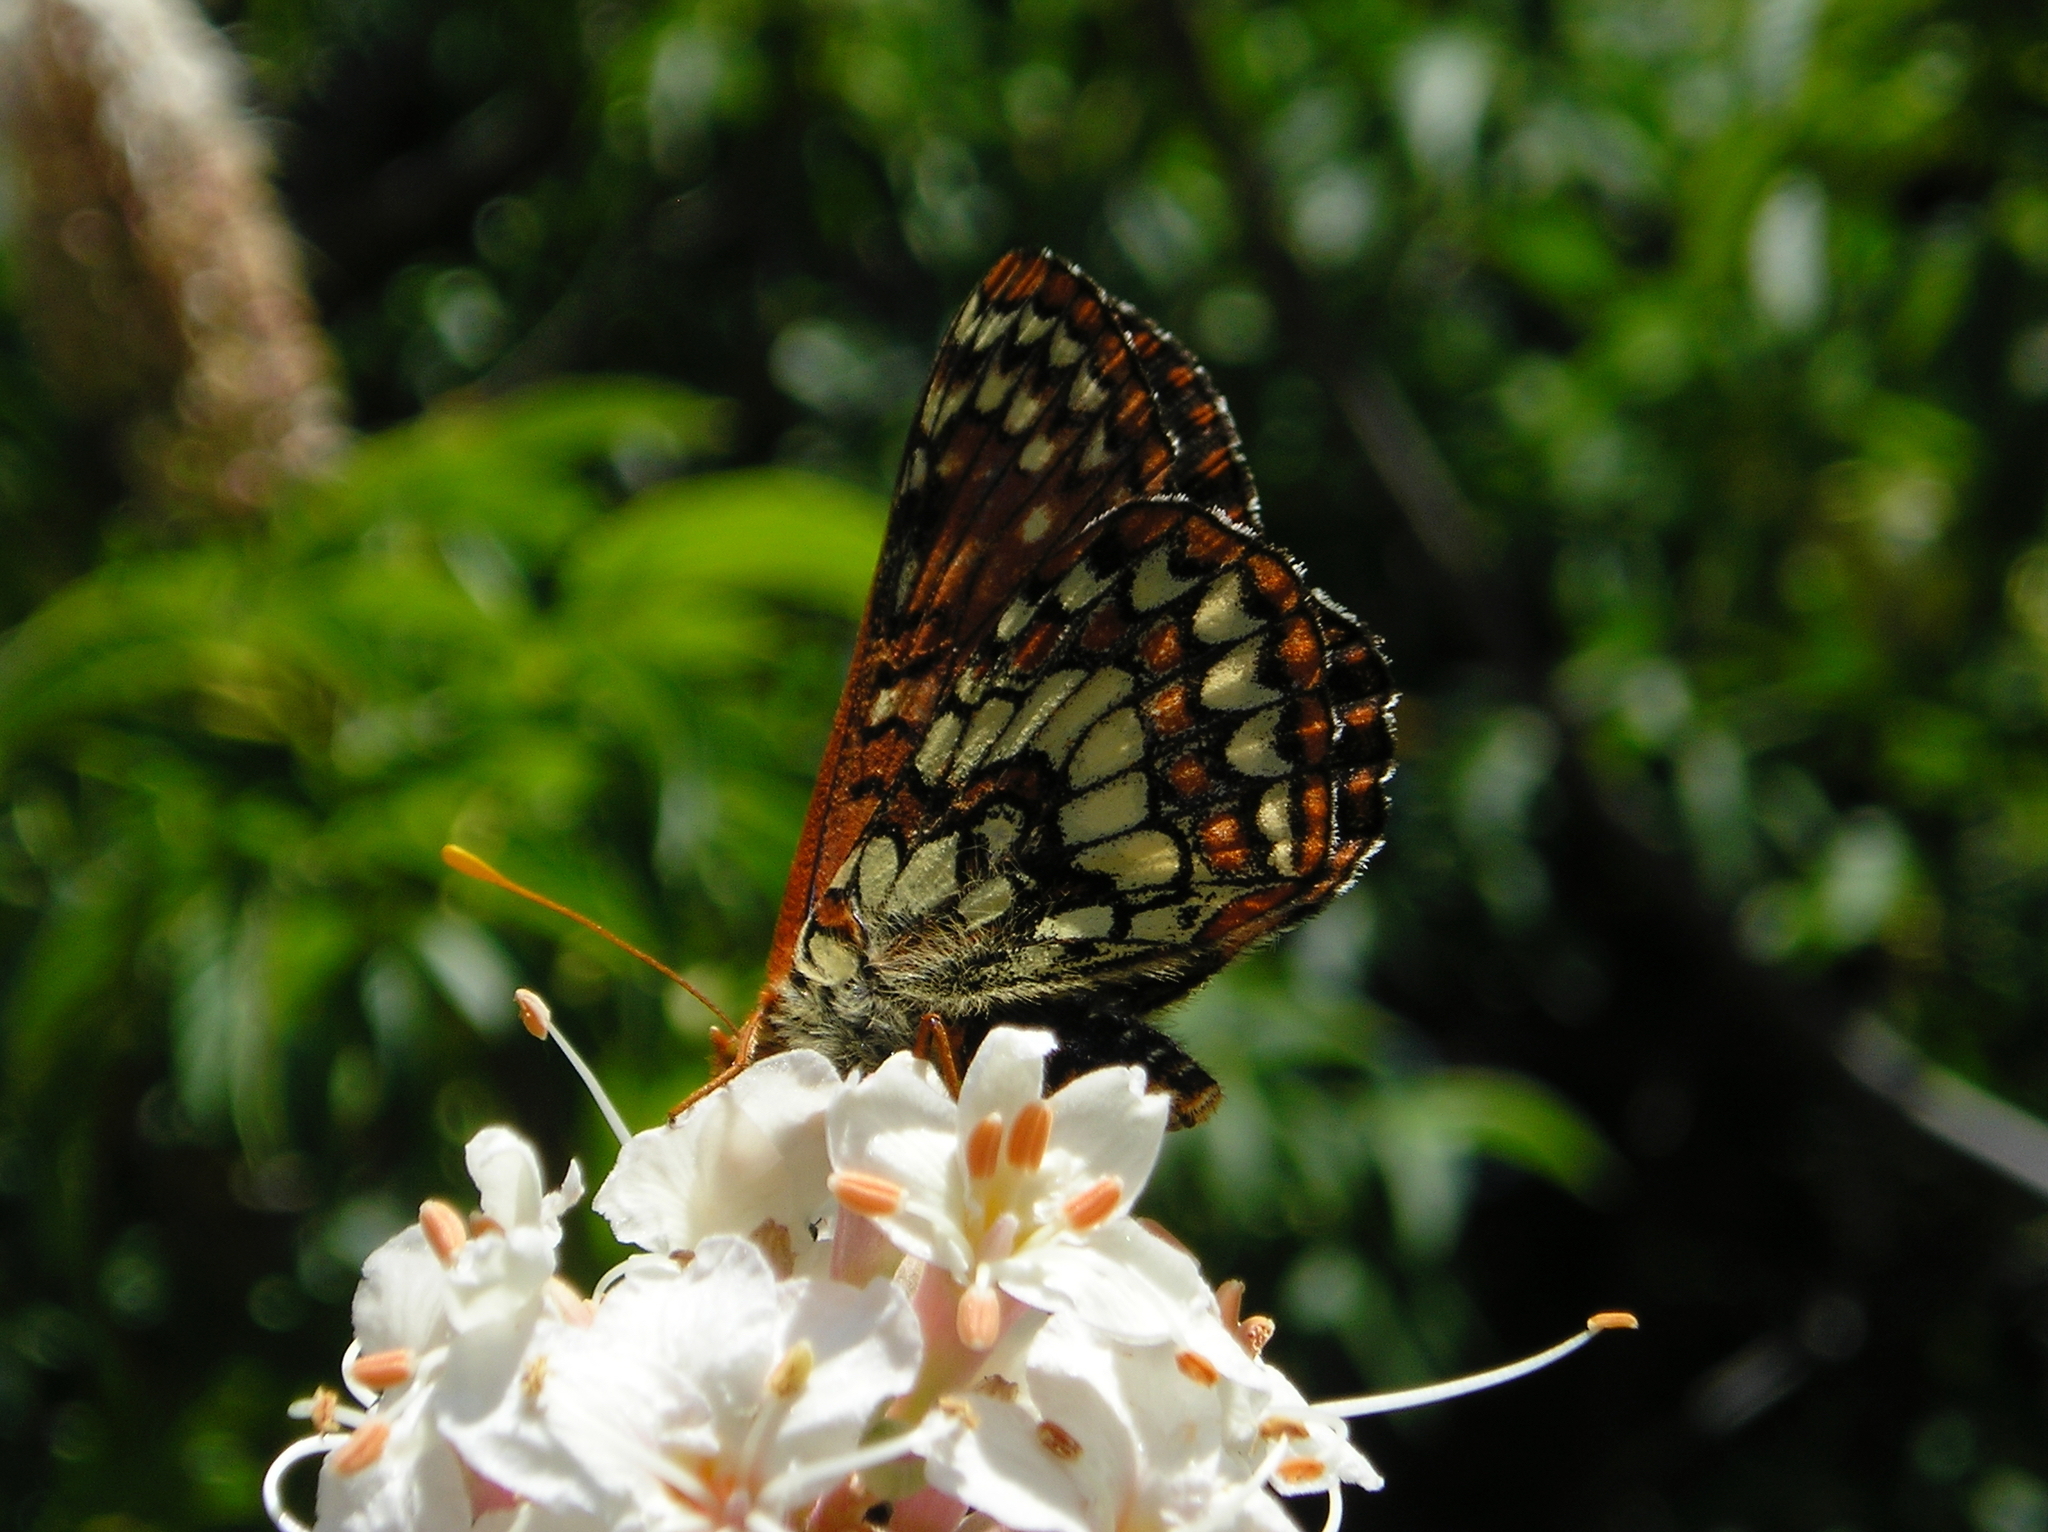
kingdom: Animalia
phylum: Arthropoda
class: Insecta
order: Lepidoptera
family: Nymphalidae
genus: Occidryas
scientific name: Occidryas chalcedona
